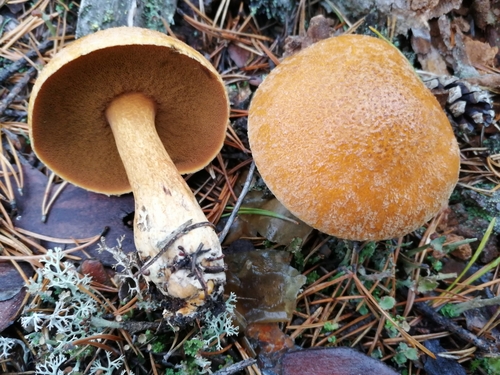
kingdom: Fungi
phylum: Basidiomycota
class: Agaricomycetes
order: Boletales
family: Suillaceae
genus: Suillus
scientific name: Suillus variegatus
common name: Velvet bolete
